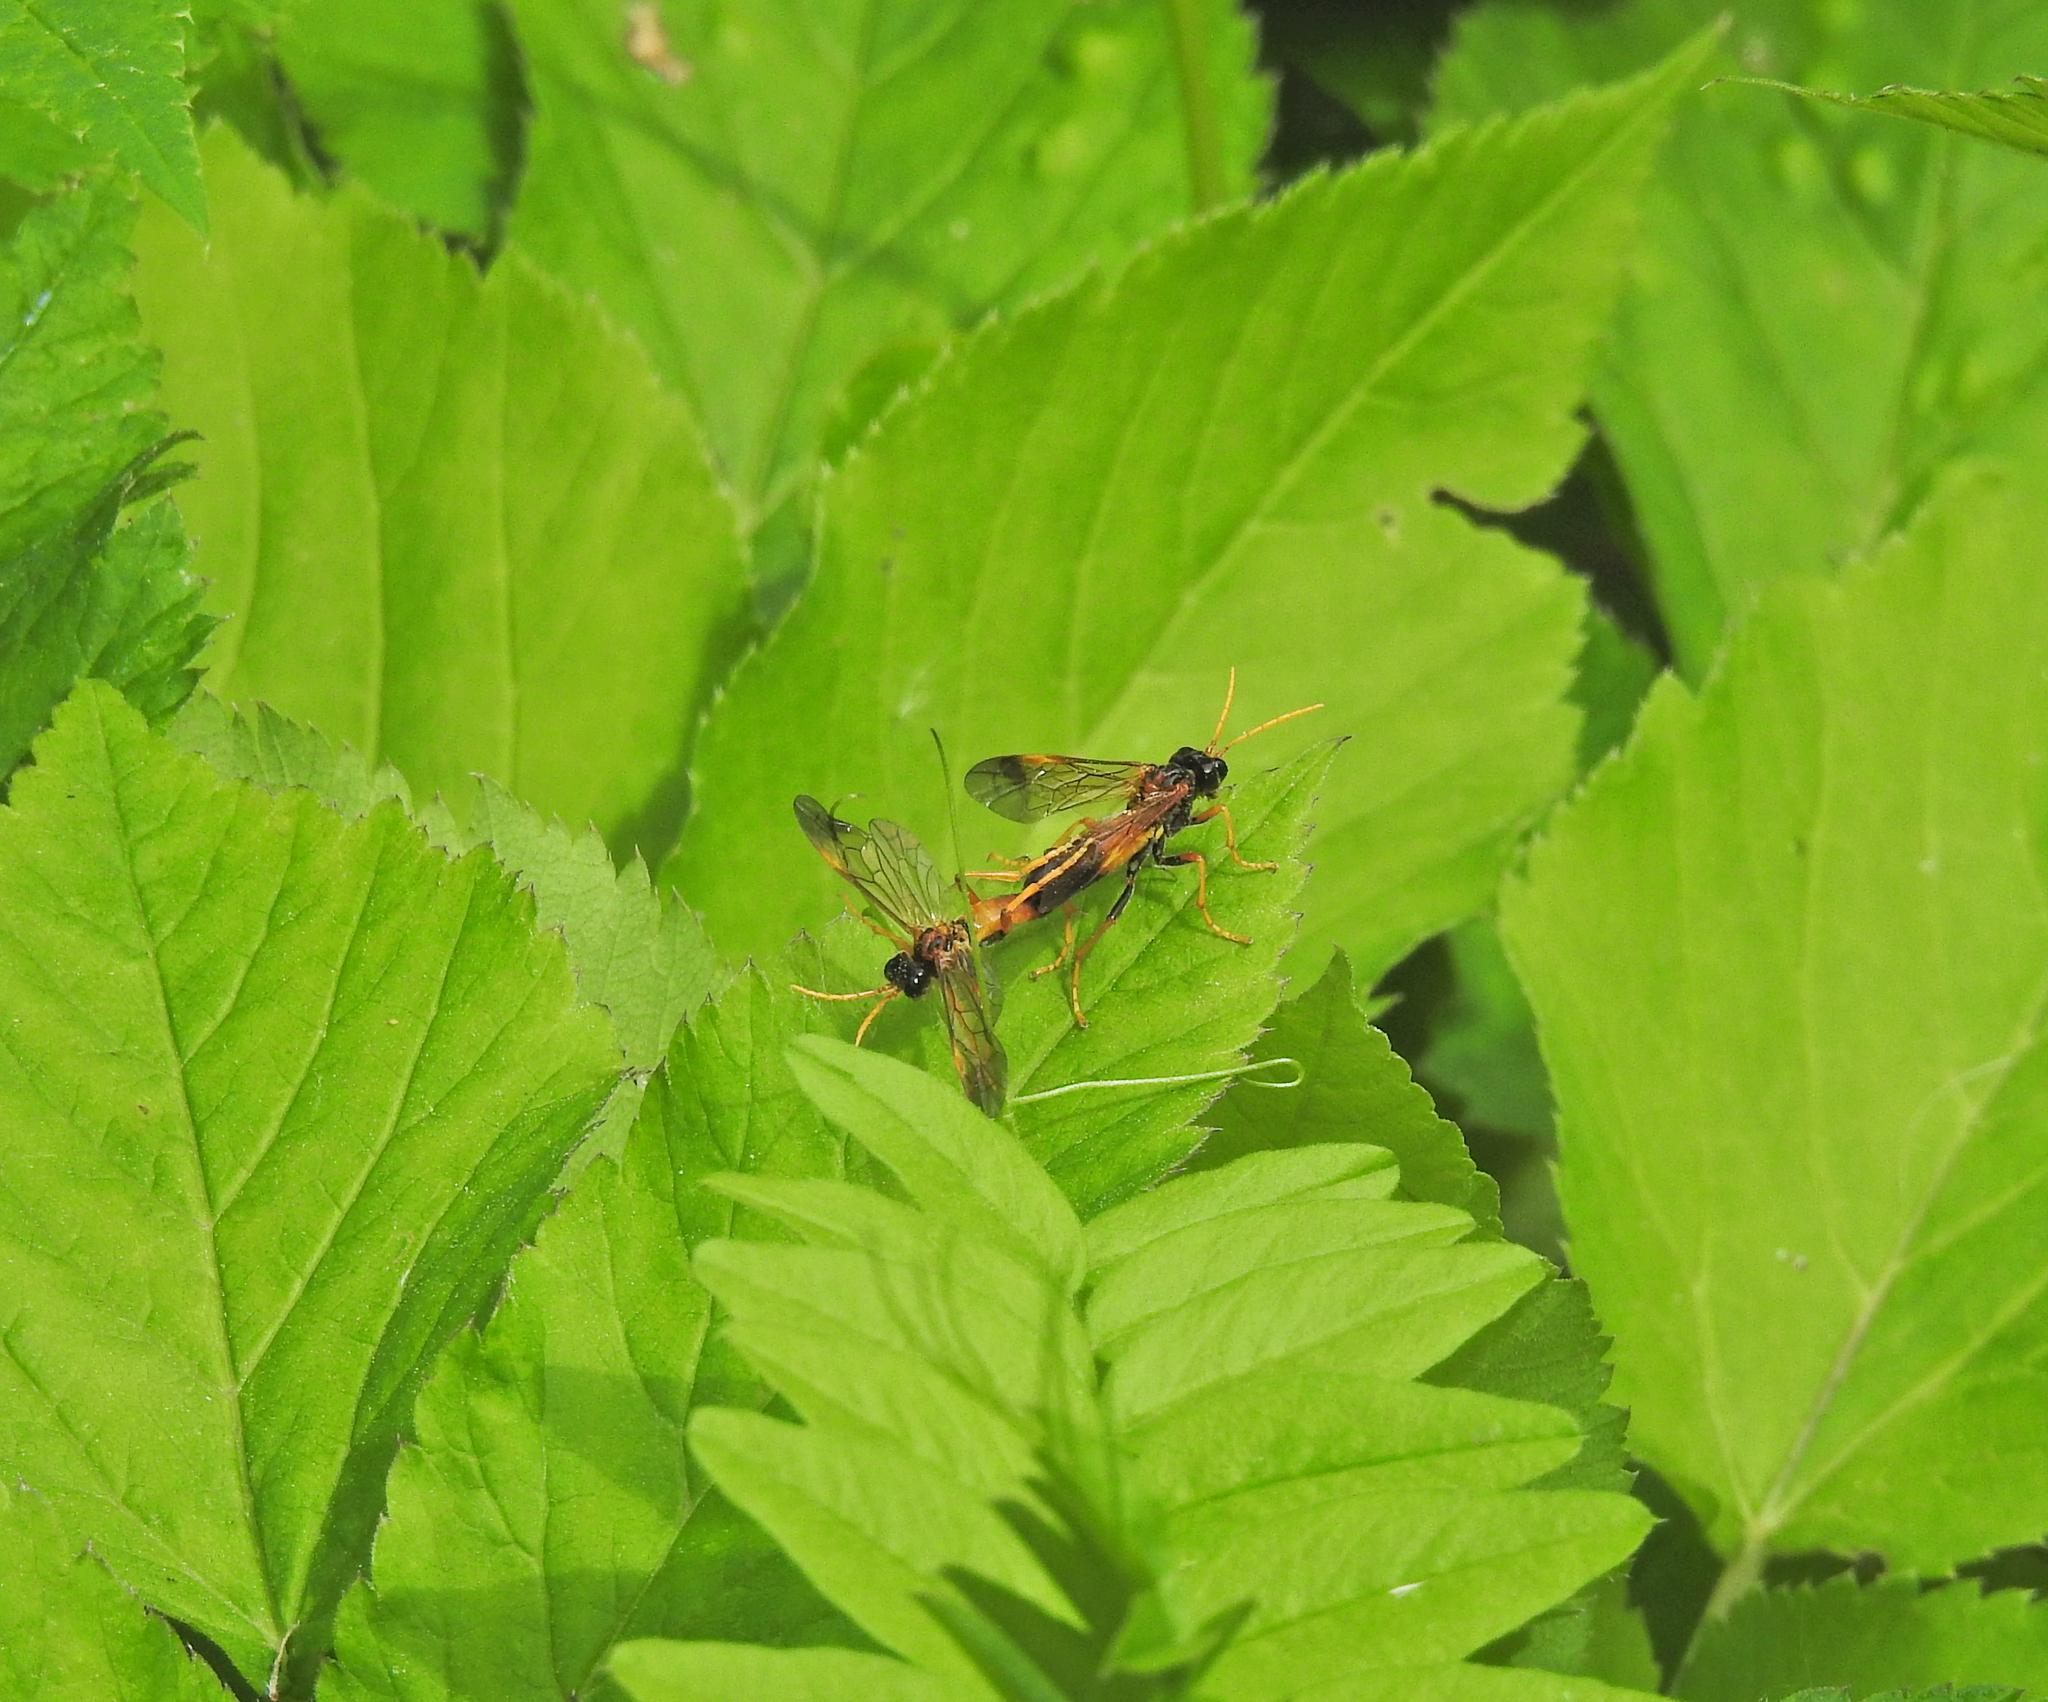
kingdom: Animalia
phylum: Arthropoda
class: Insecta
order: Hymenoptera
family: Tenthredinidae
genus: Tenthredo
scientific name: Tenthredo campestris
